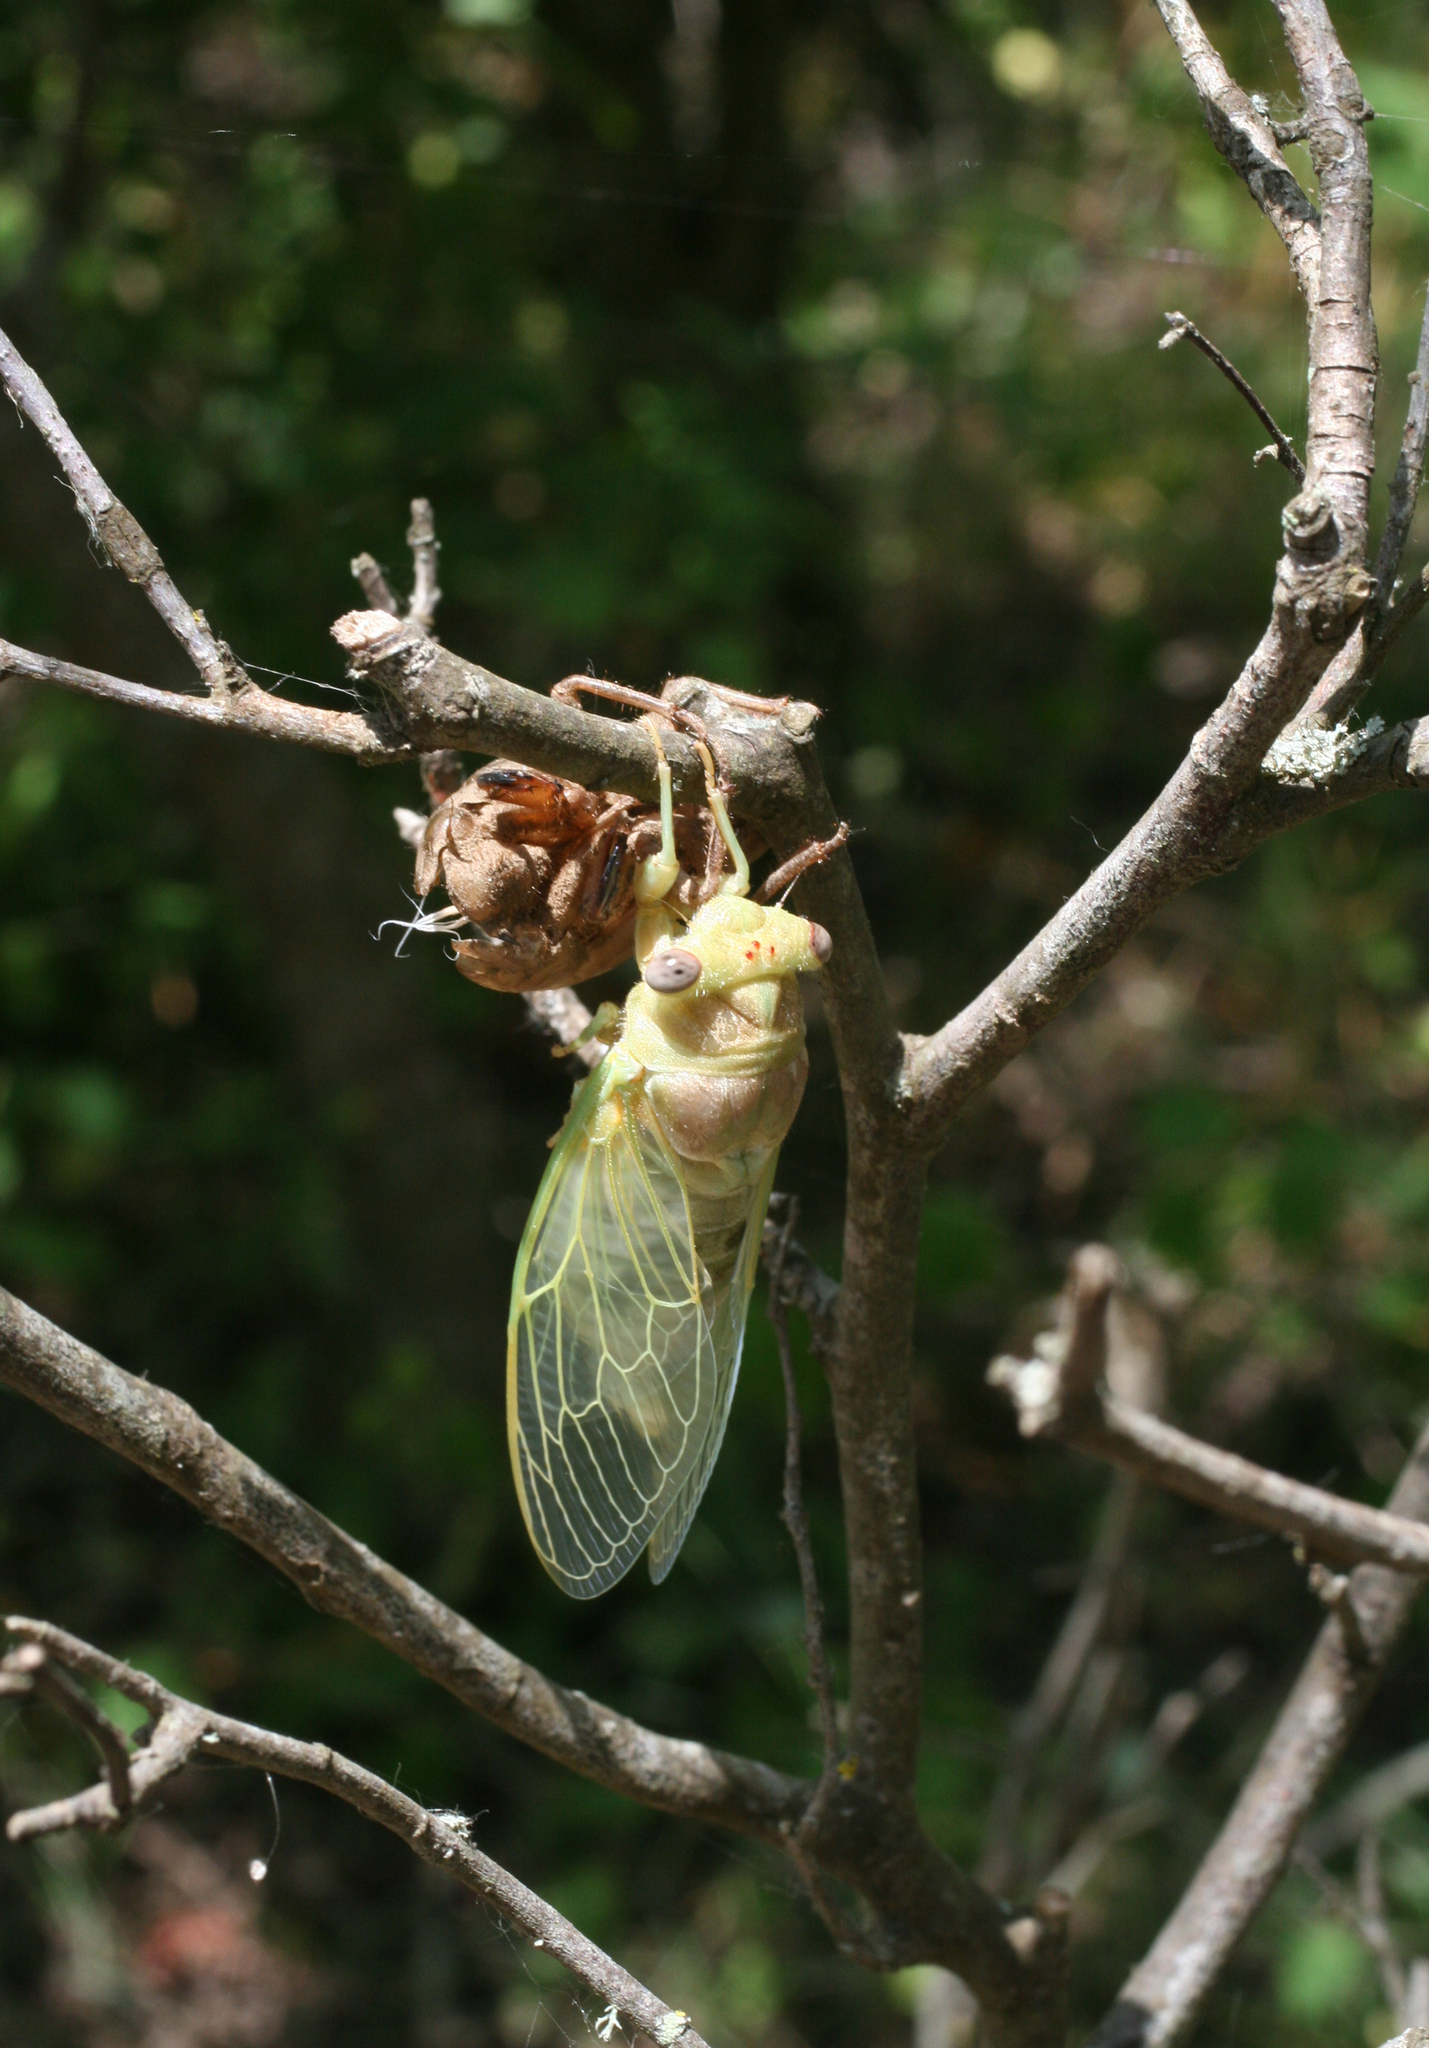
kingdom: Animalia
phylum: Arthropoda
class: Insecta
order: Hemiptera
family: Cicadidae
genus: Lyristes
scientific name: Lyristes plebejus
